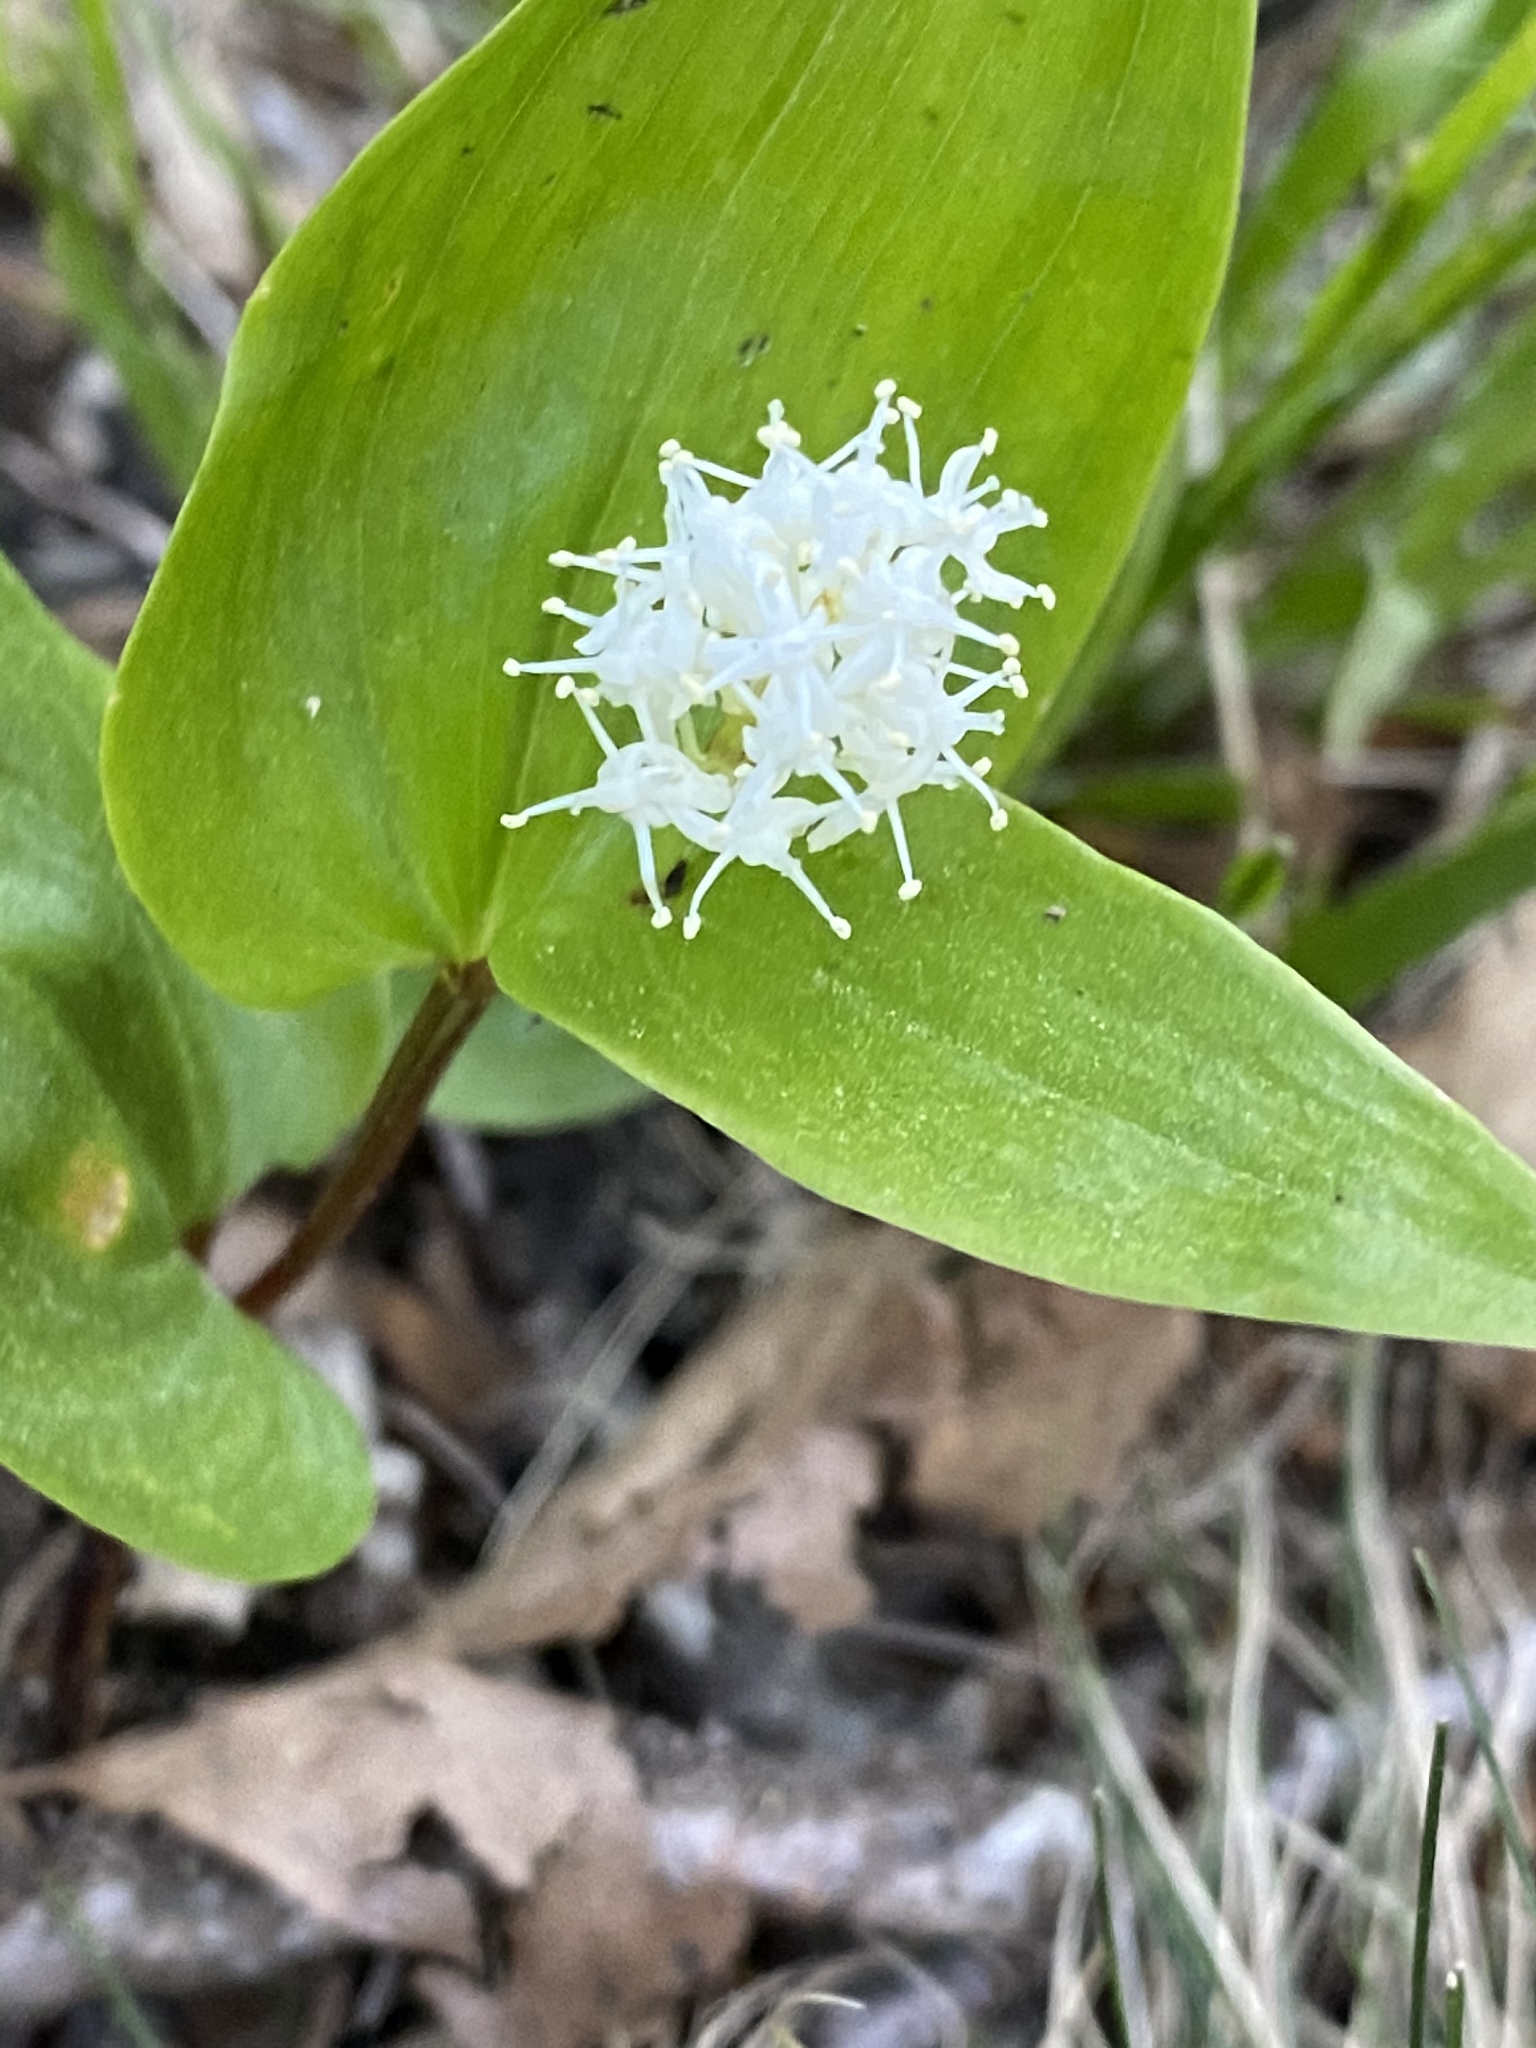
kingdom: Plantae
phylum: Tracheophyta
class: Liliopsida
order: Asparagales
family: Asparagaceae
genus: Maianthemum
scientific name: Maianthemum canadense
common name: False lily-of-the-valley
